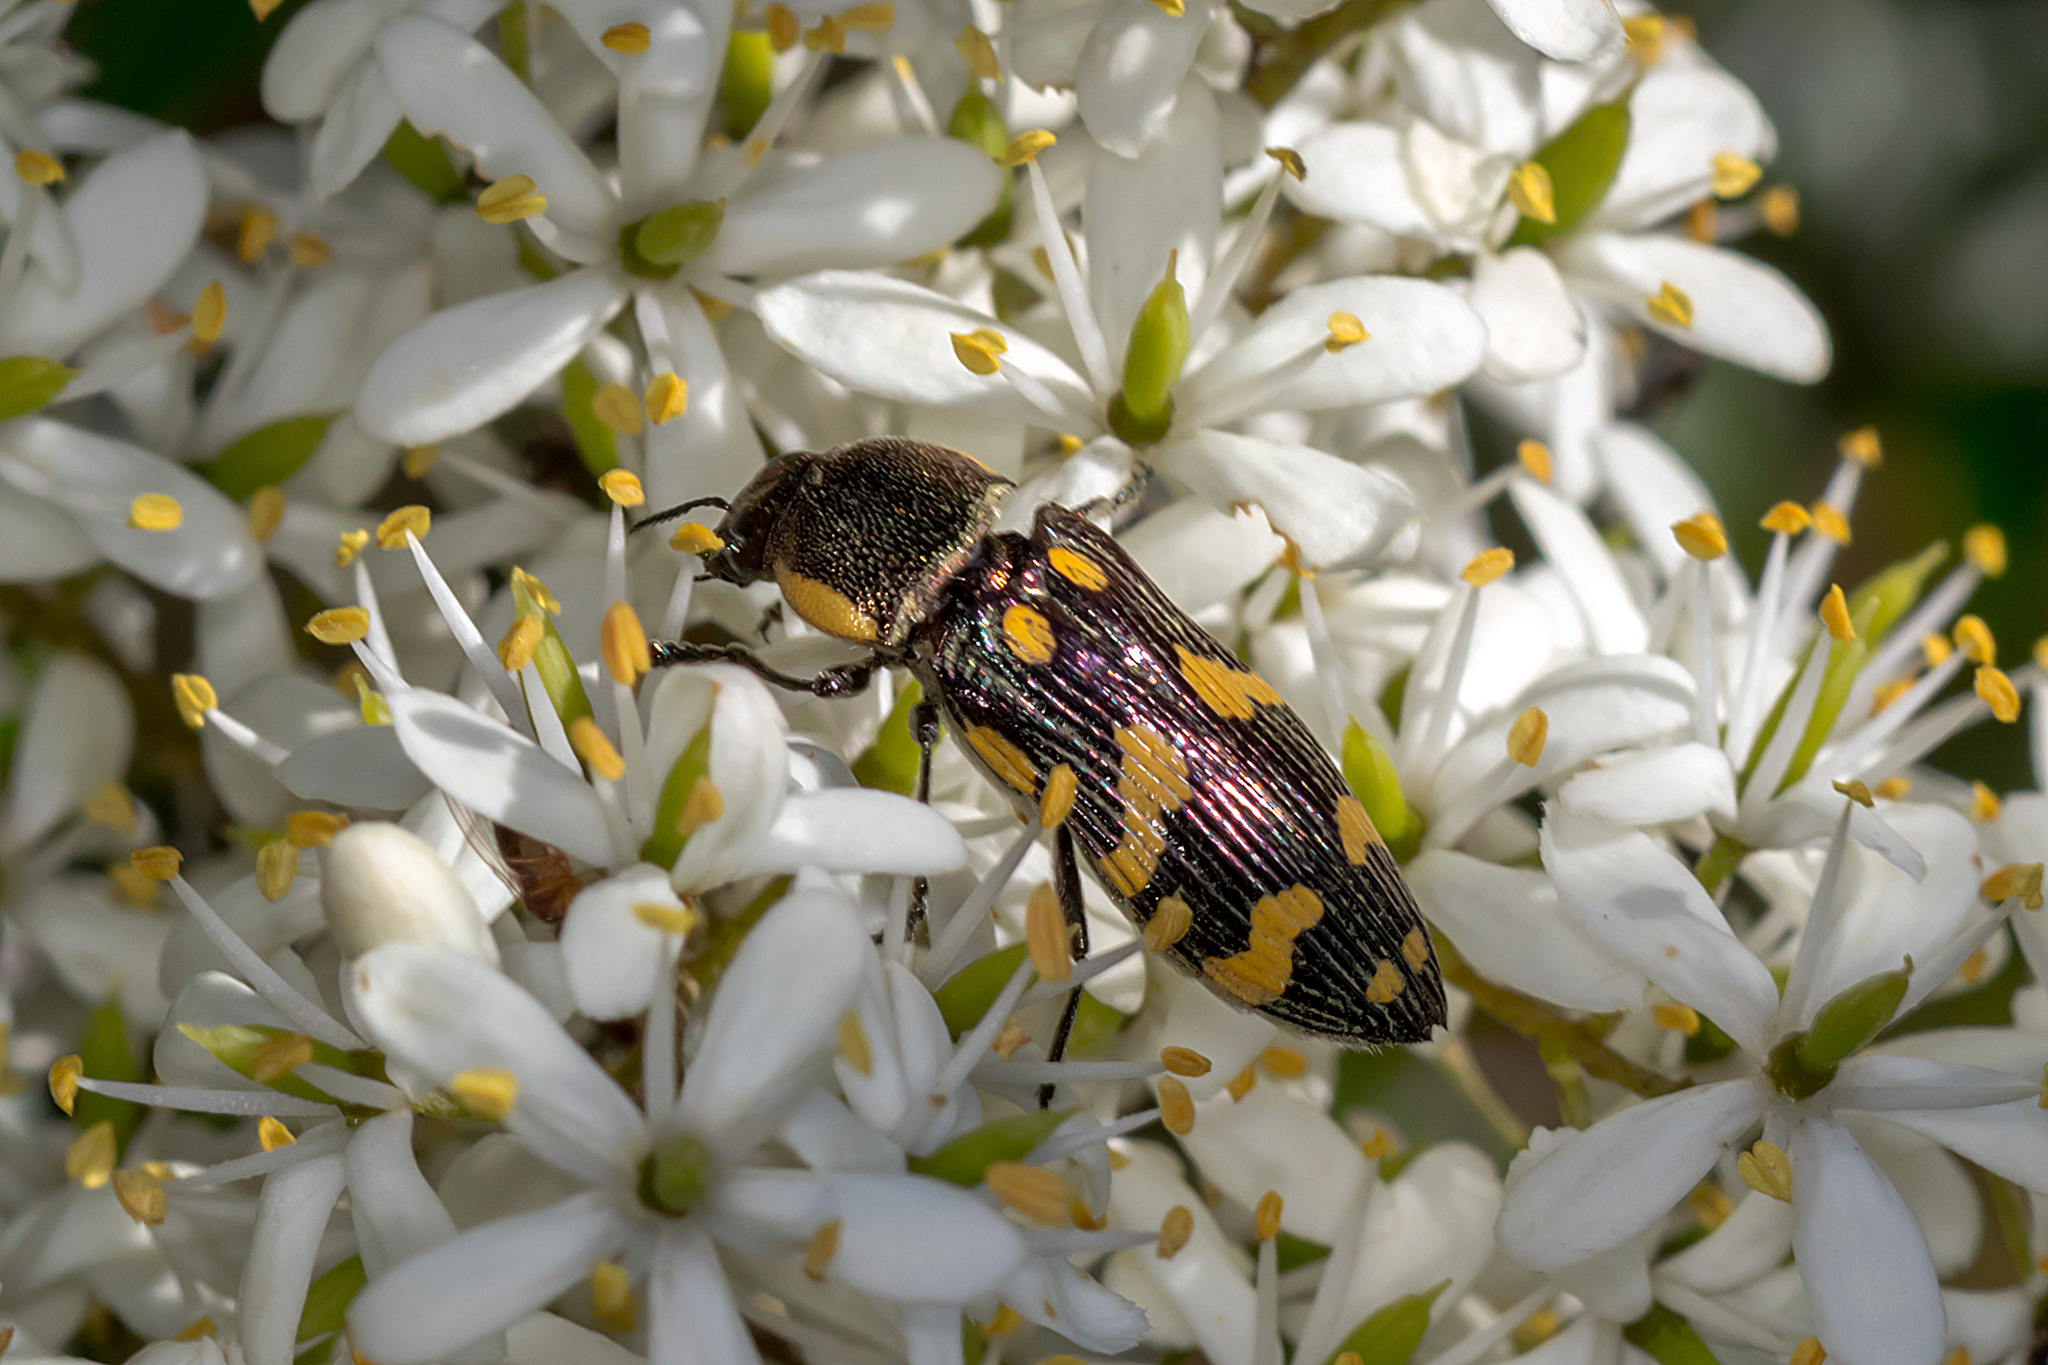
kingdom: Animalia
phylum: Arthropoda
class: Insecta
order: Coleoptera
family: Buprestidae
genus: Castiarina
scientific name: Castiarina victoriensis
